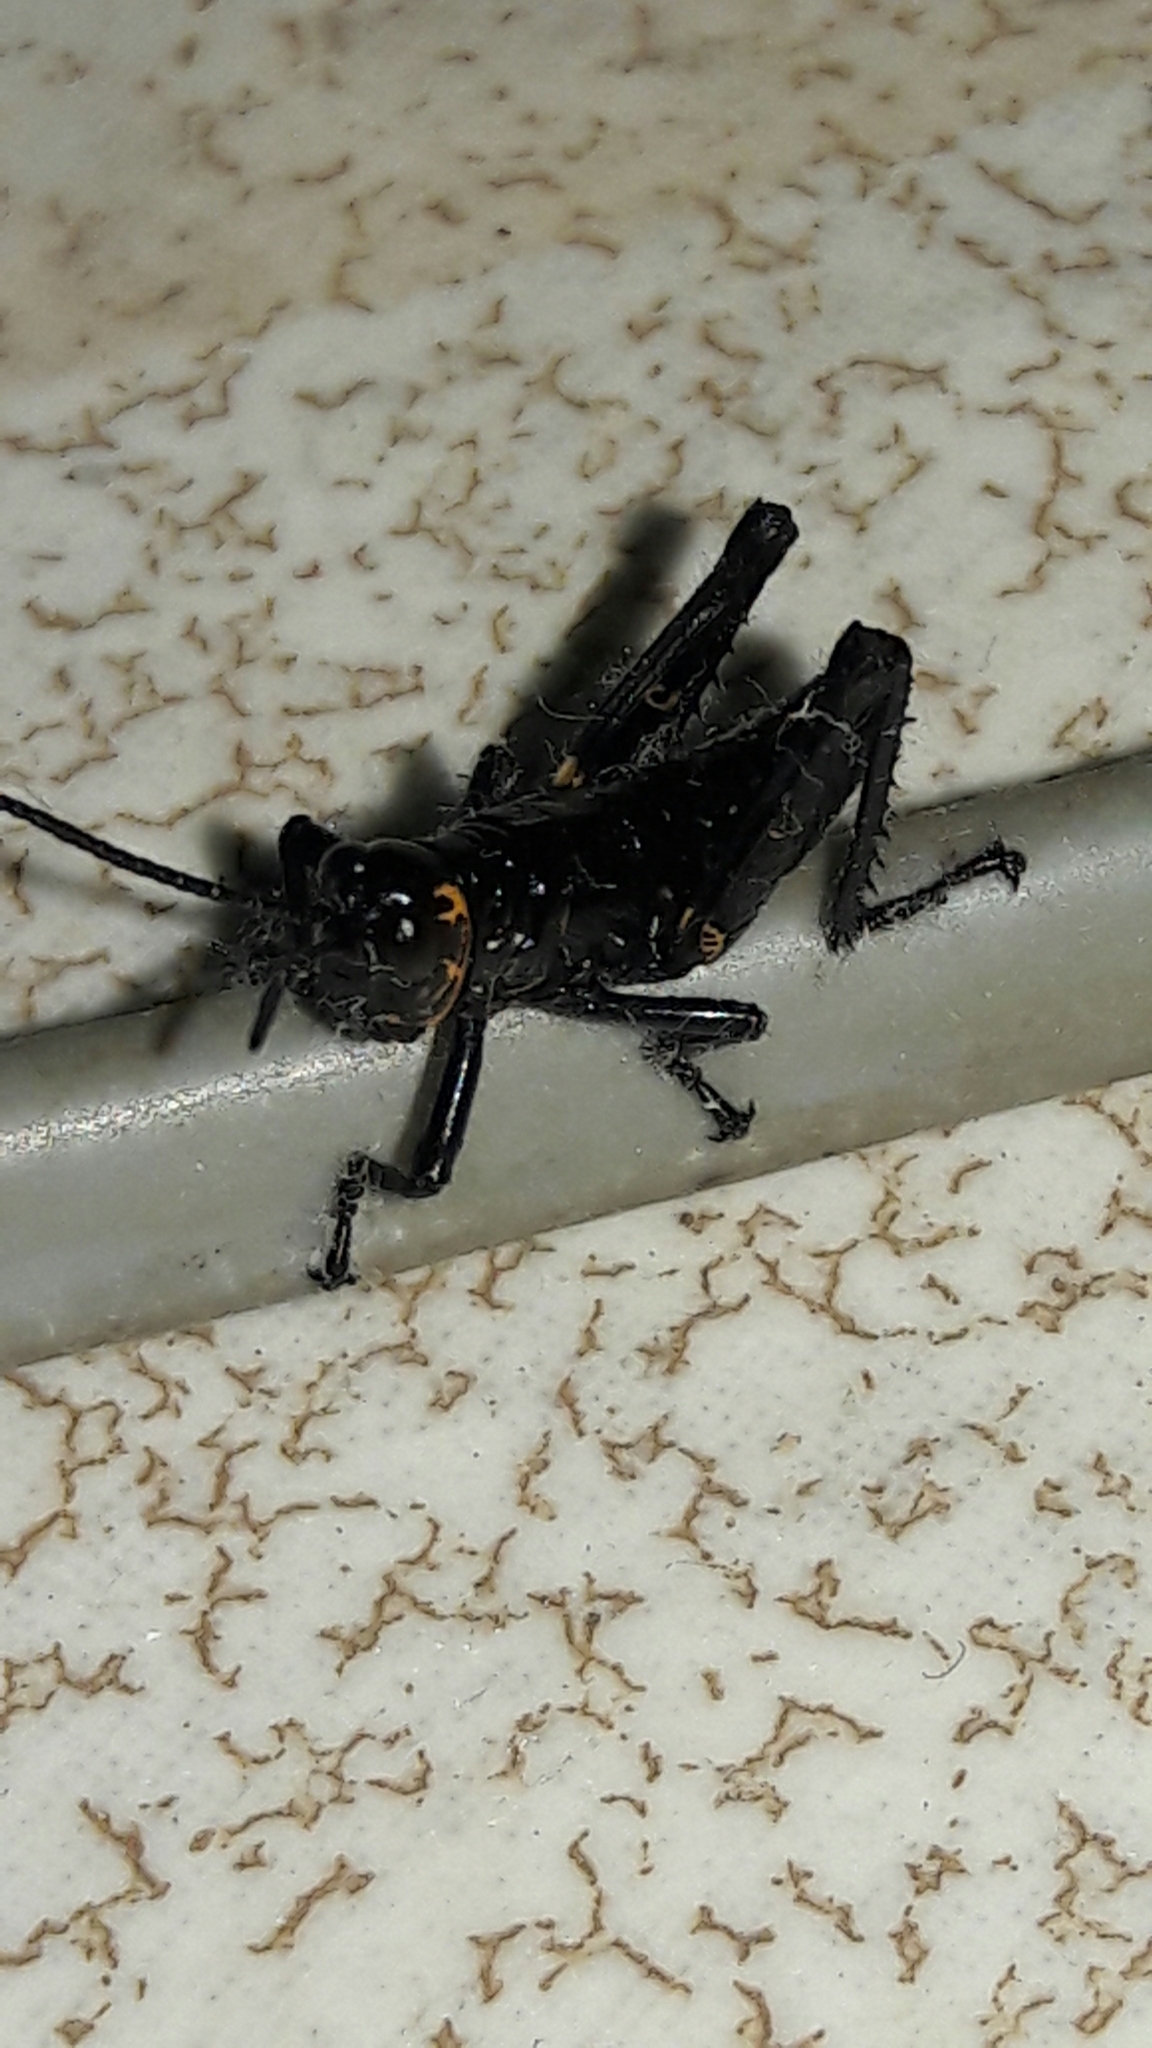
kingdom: Animalia
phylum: Arthropoda
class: Insecta
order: Orthoptera
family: Romaleidae
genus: Chromacris
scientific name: Chromacris speciosa
